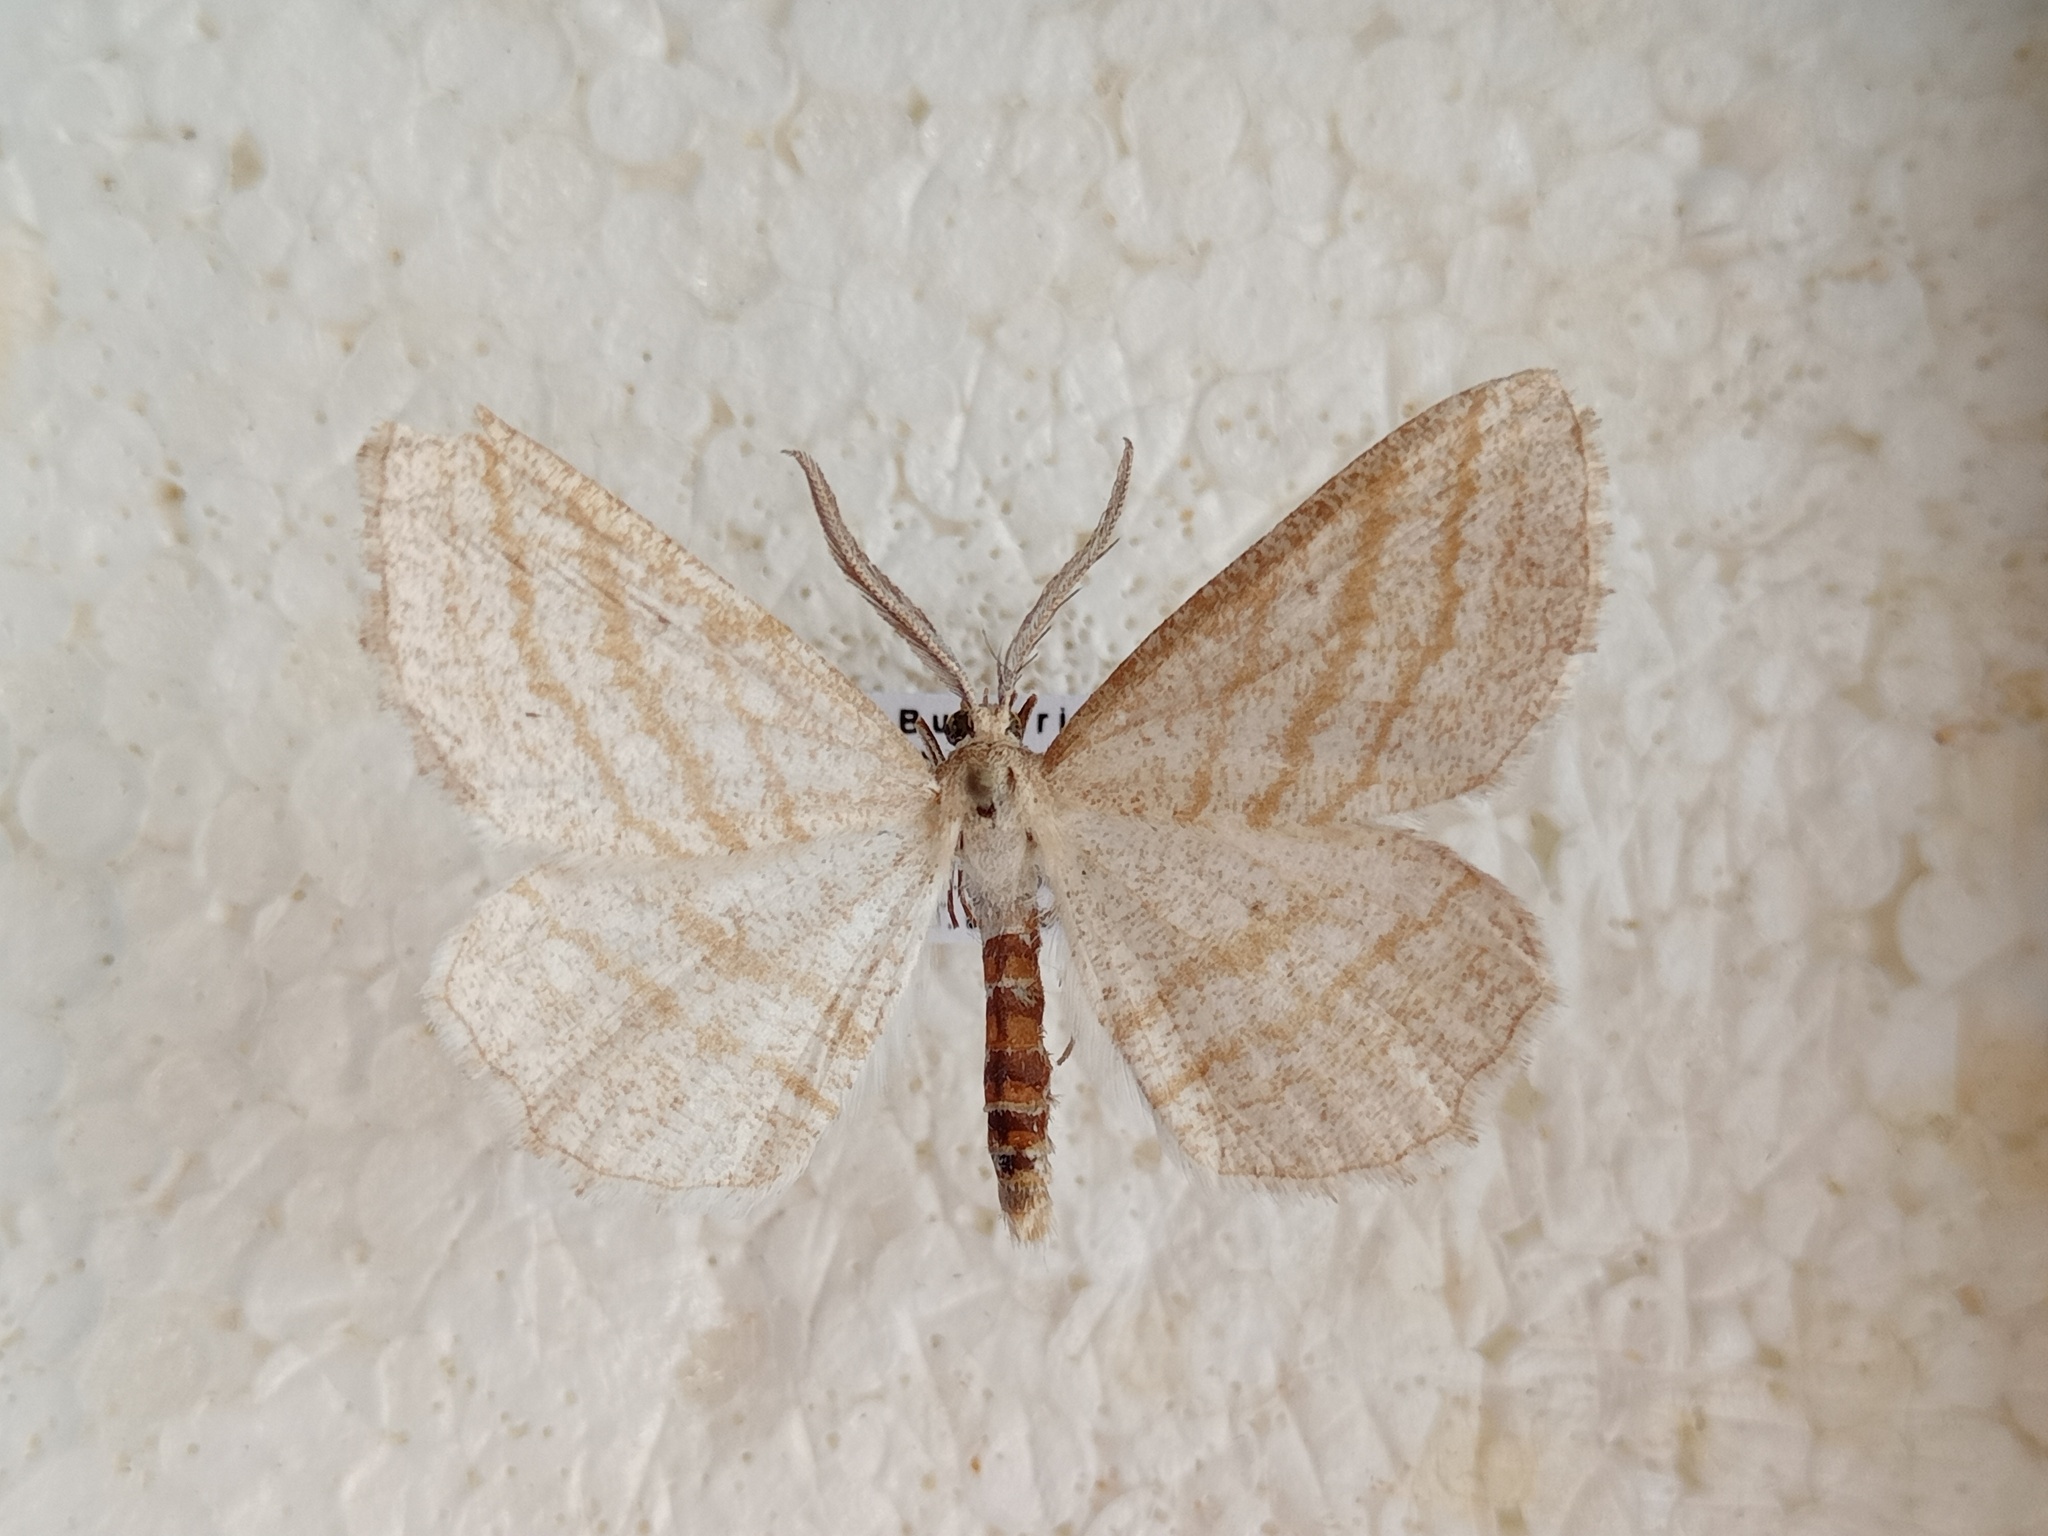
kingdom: Animalia
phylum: Arthropoda
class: Insecta
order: Lepidoptera
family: Geometridae
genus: Perconia
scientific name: Perconia strigillaria
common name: Grass wave
